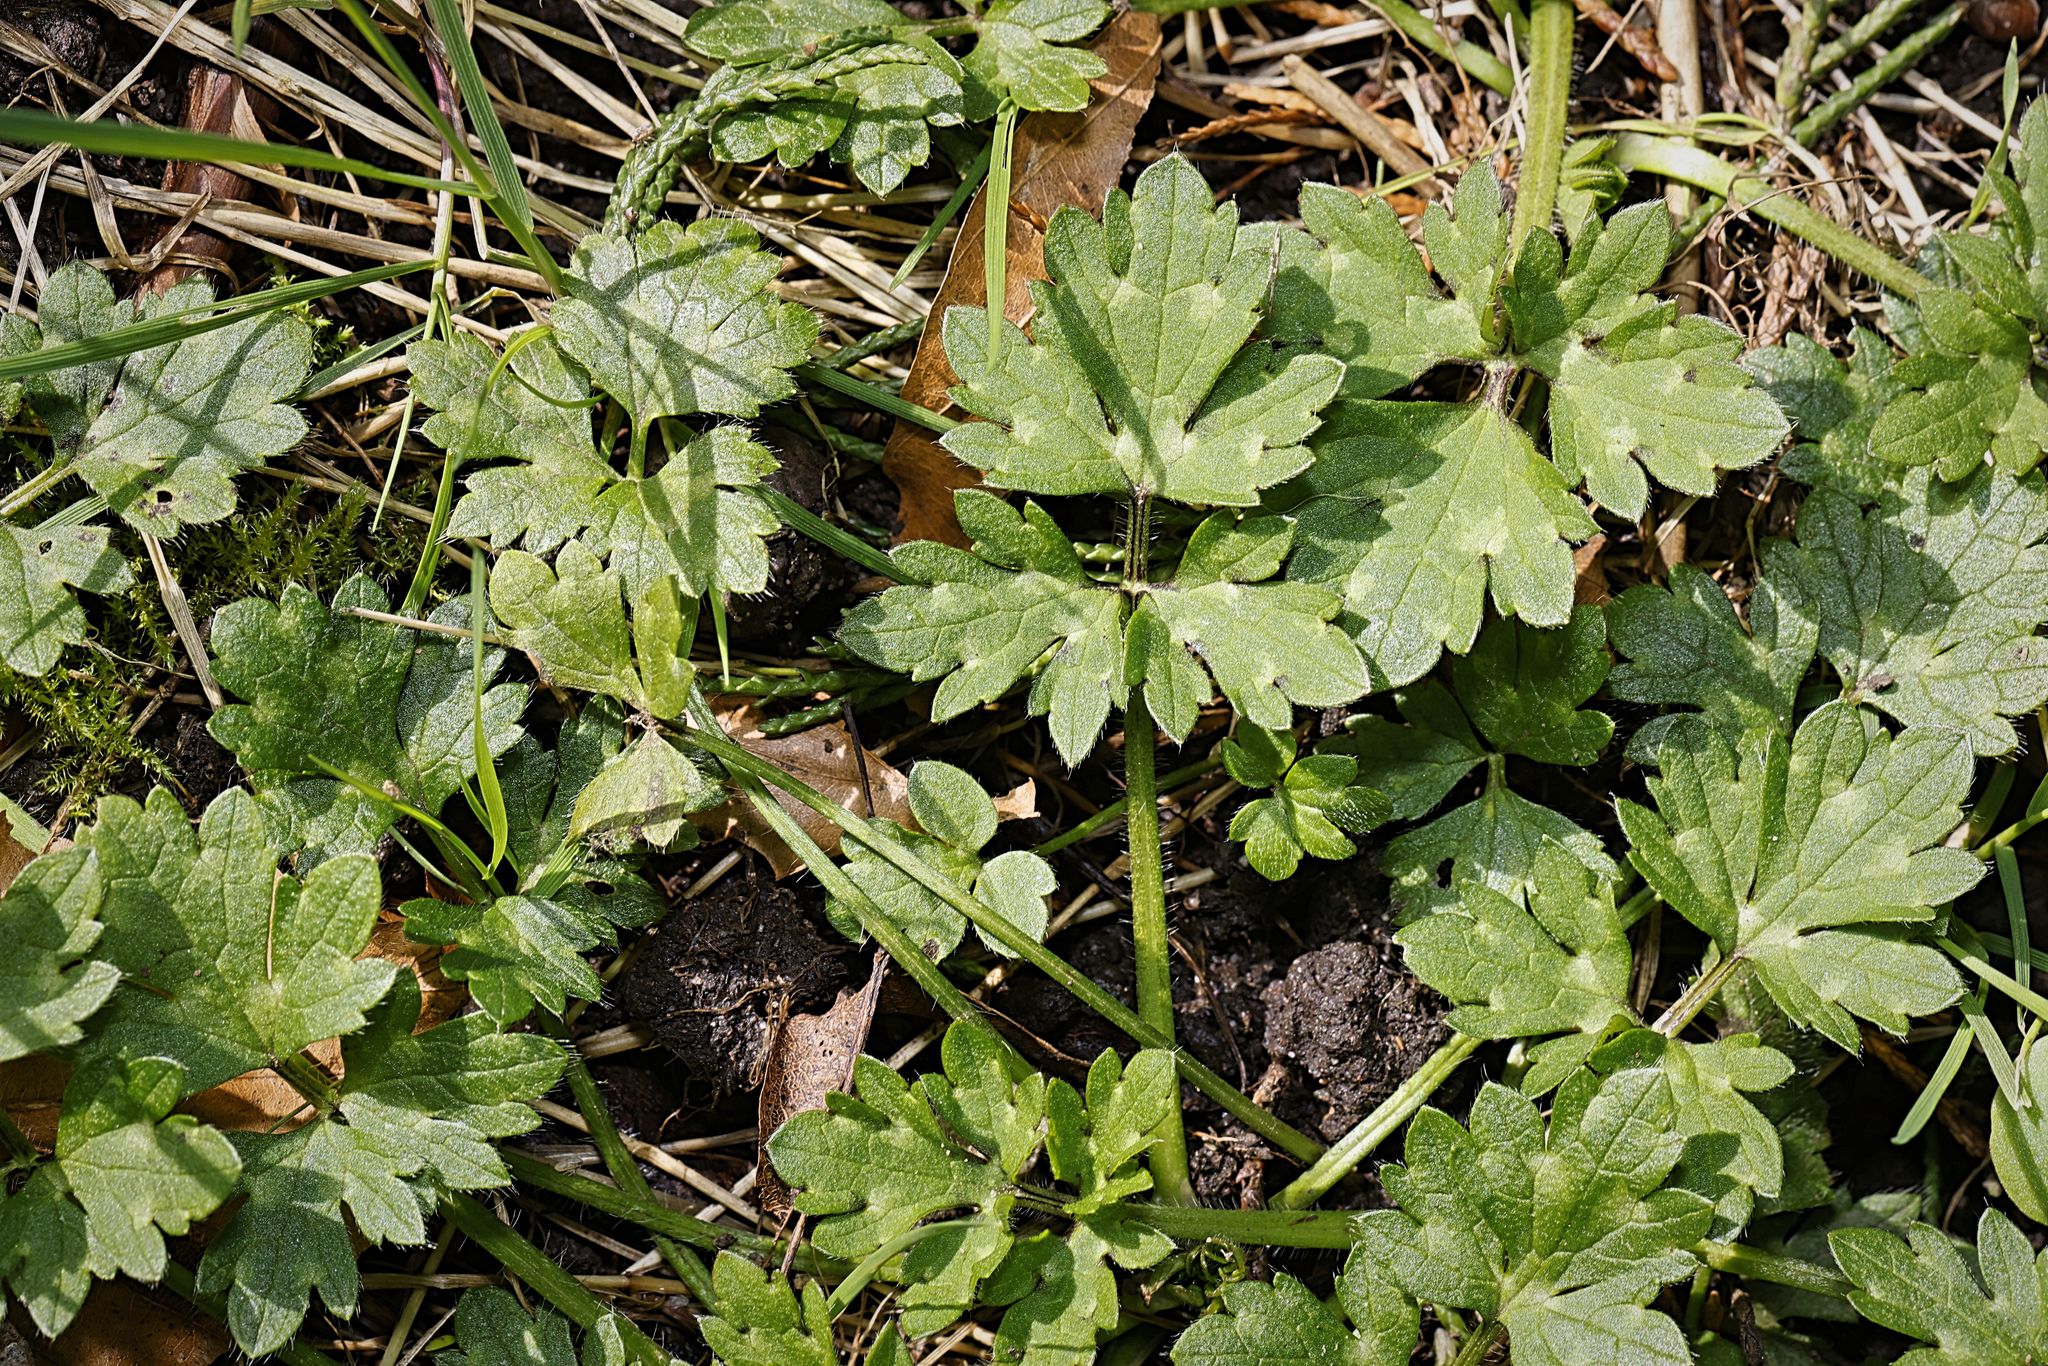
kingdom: Plantae
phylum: Tracheophyta
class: Magnoliopsida
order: Ranunculales
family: Ranunculaceae
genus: Ranunculus
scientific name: Ranunculus repens
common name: Creeping buttercup
